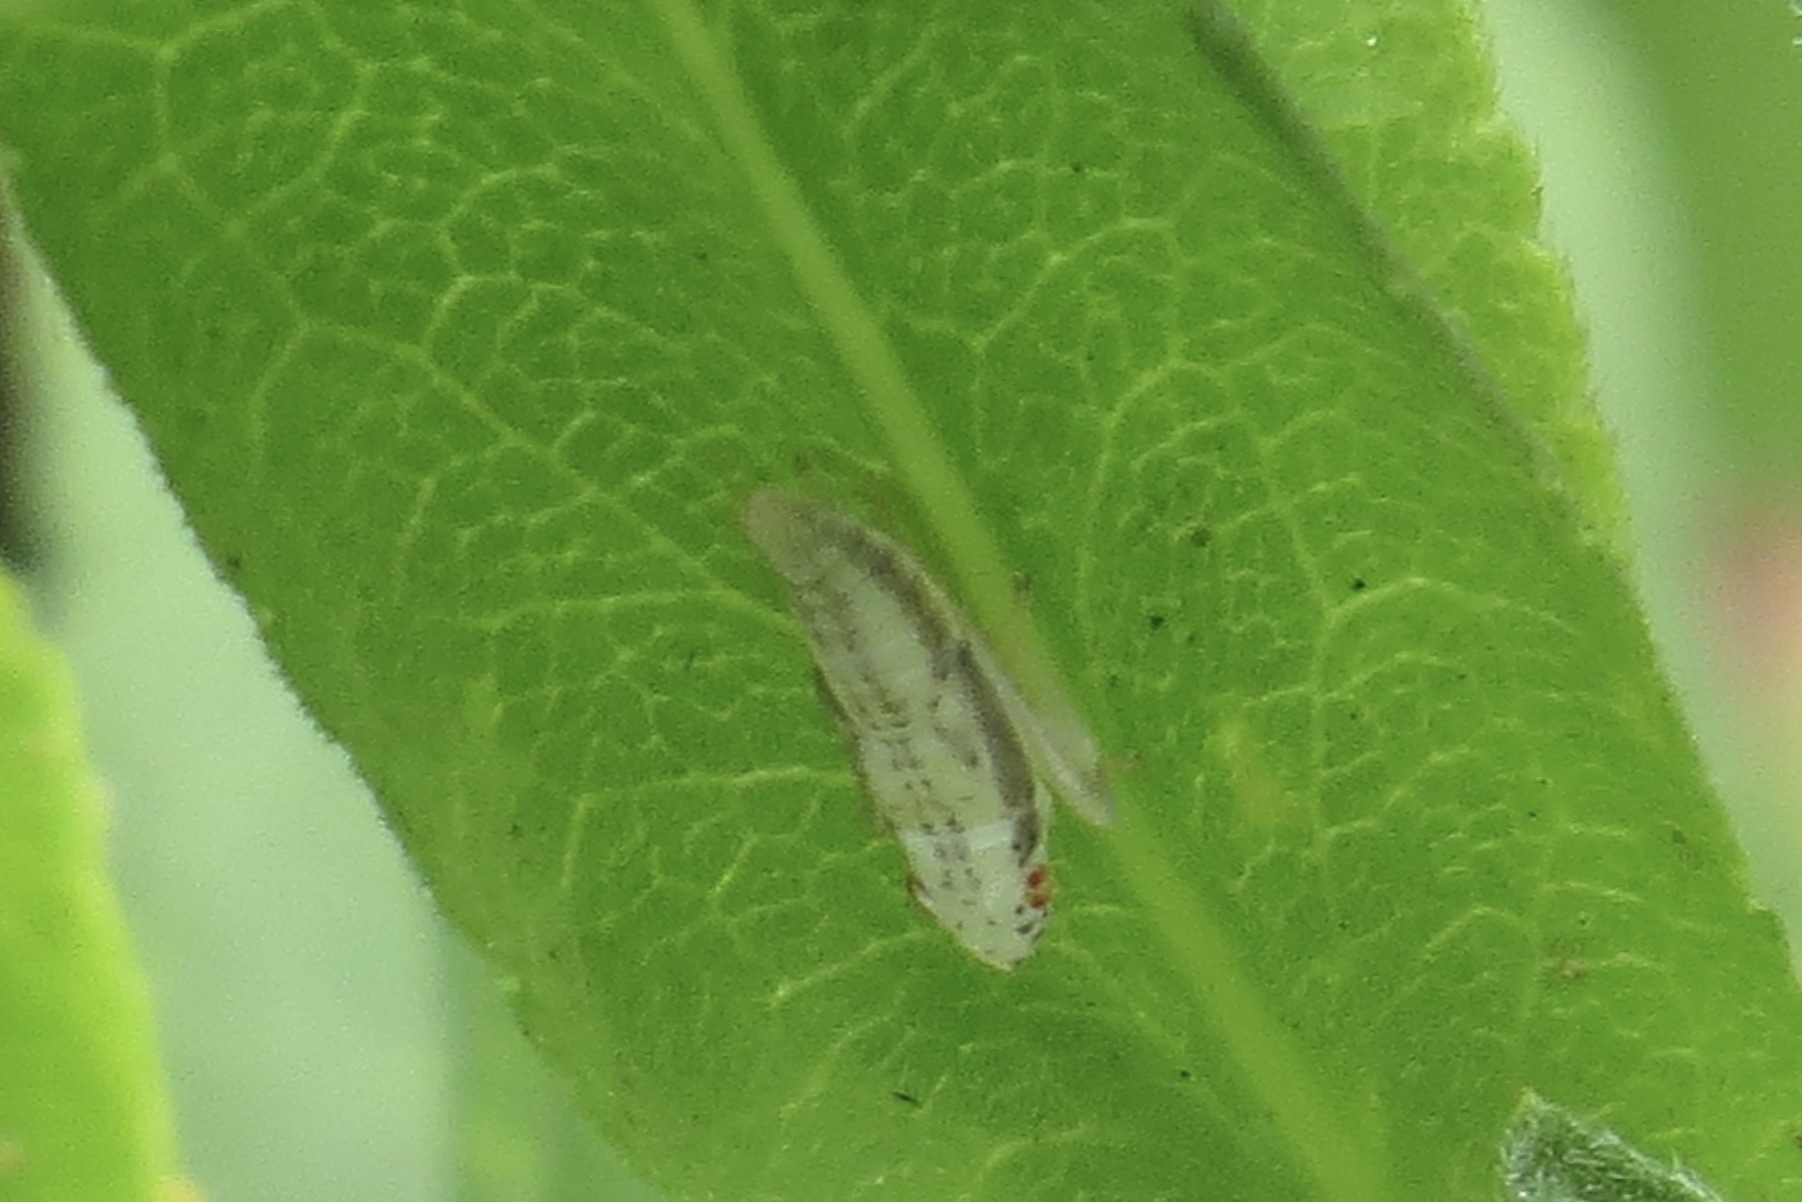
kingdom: Animalia
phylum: Arthropoda
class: Insecta
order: Hemiptera
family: Cicadellidae
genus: Pagaronia
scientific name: Pagaronia triunata
